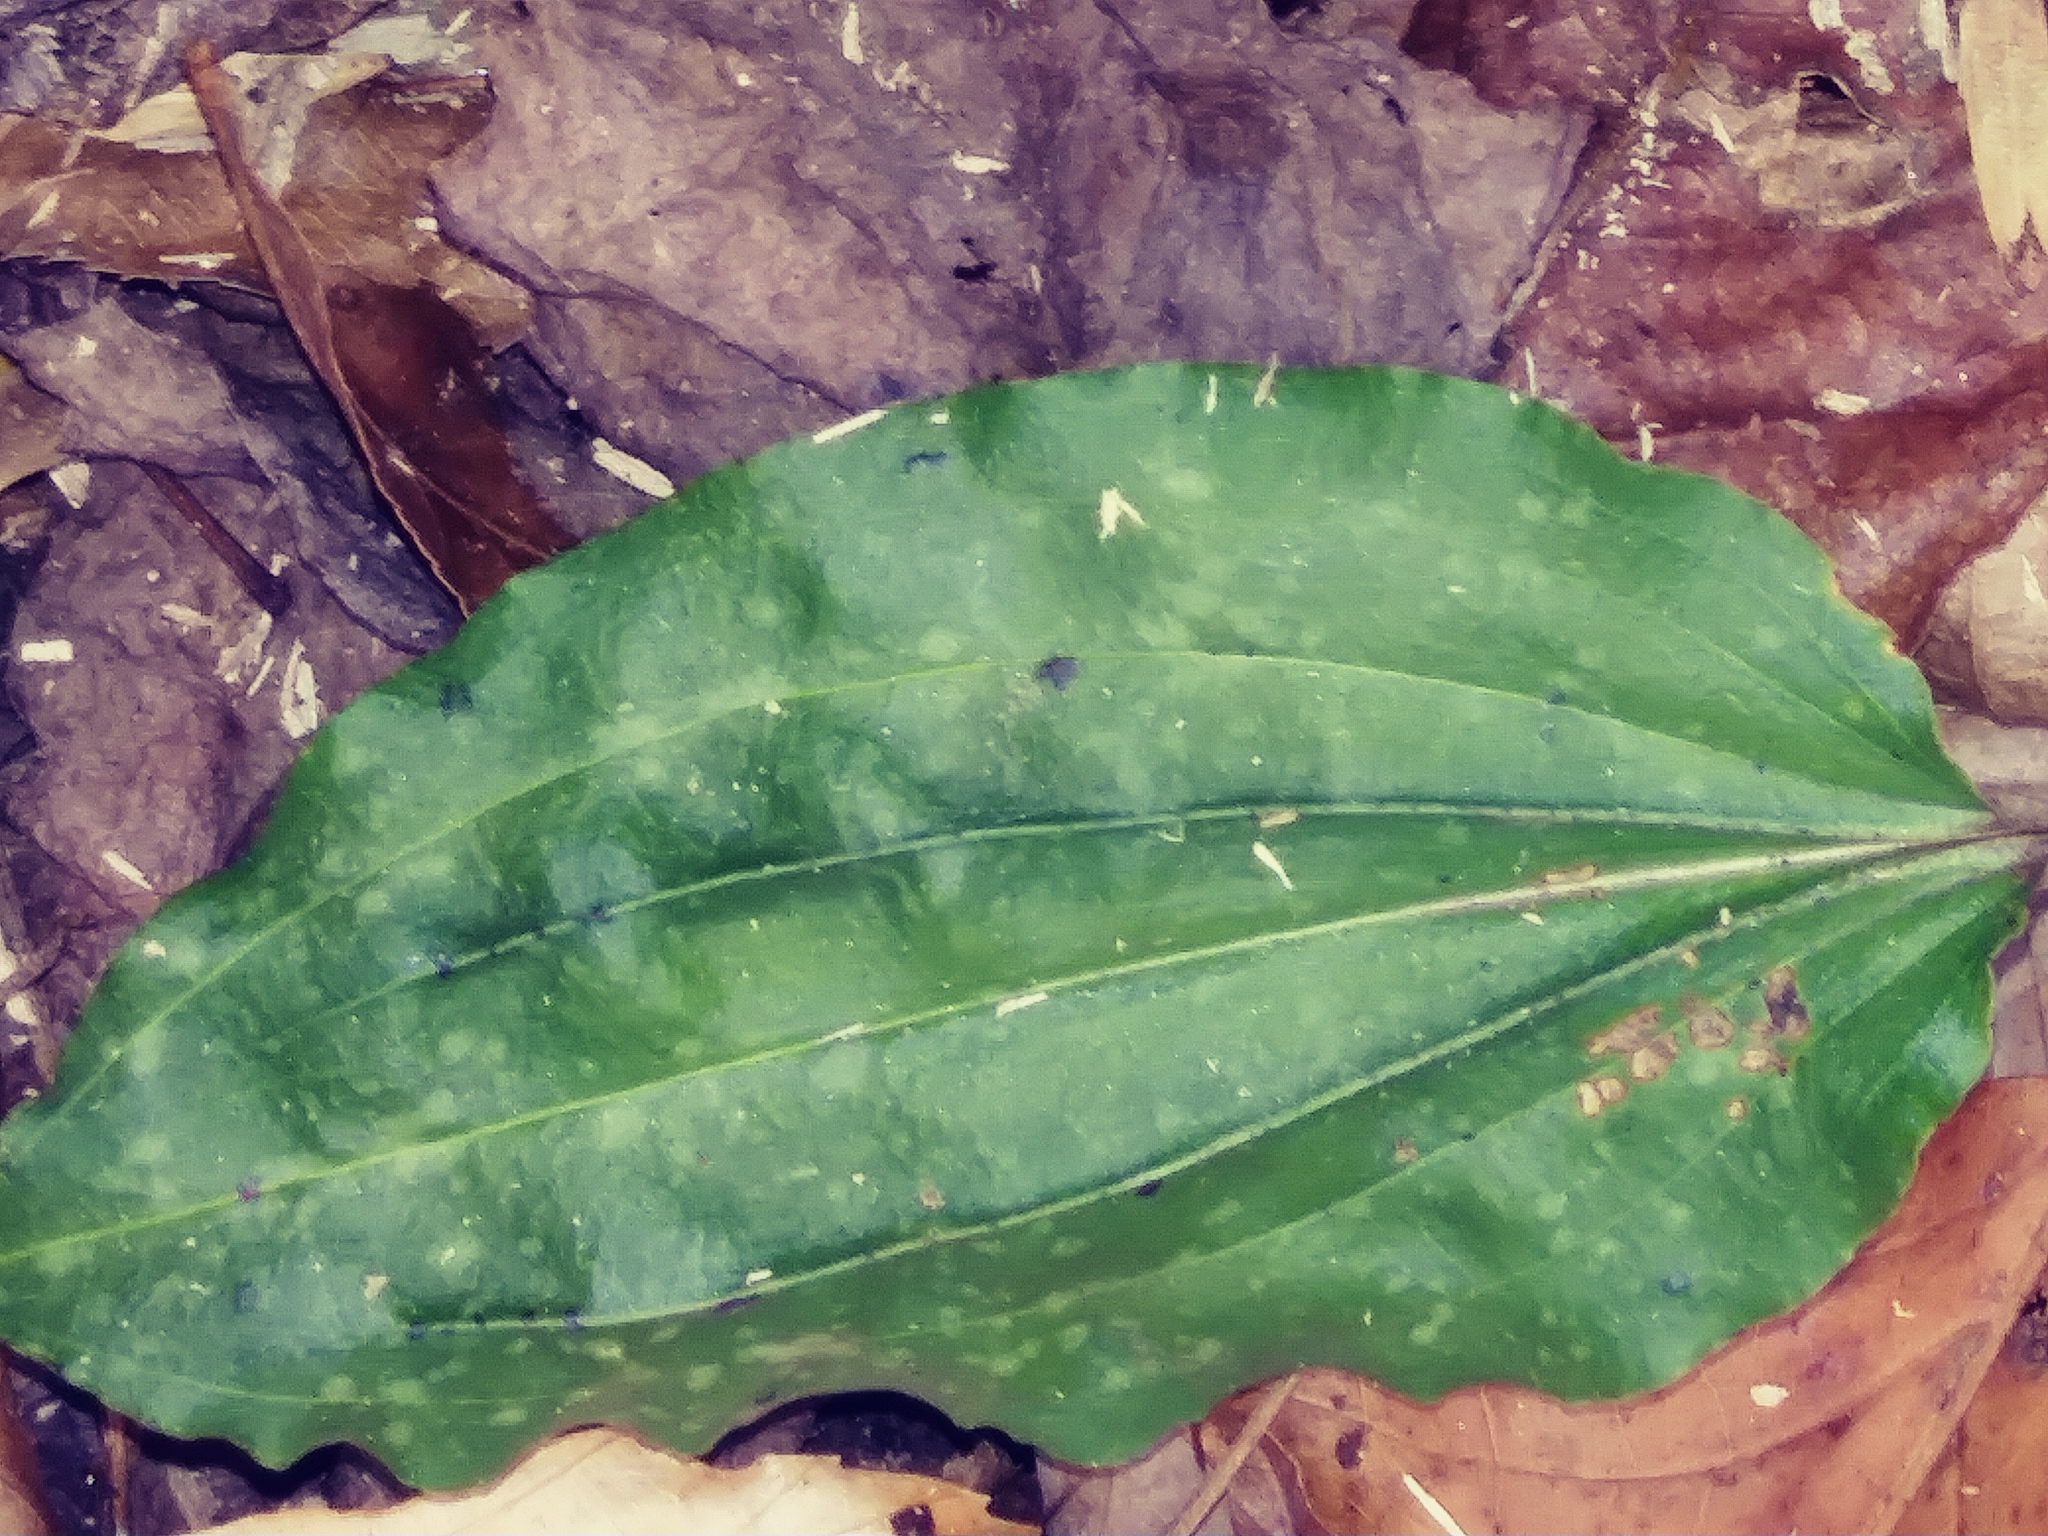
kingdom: Plantae
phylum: Tracheophyta
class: Liliopsida
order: Asparagales
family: Orchidaceae
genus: Tipularia
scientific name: Tipularia discolor
